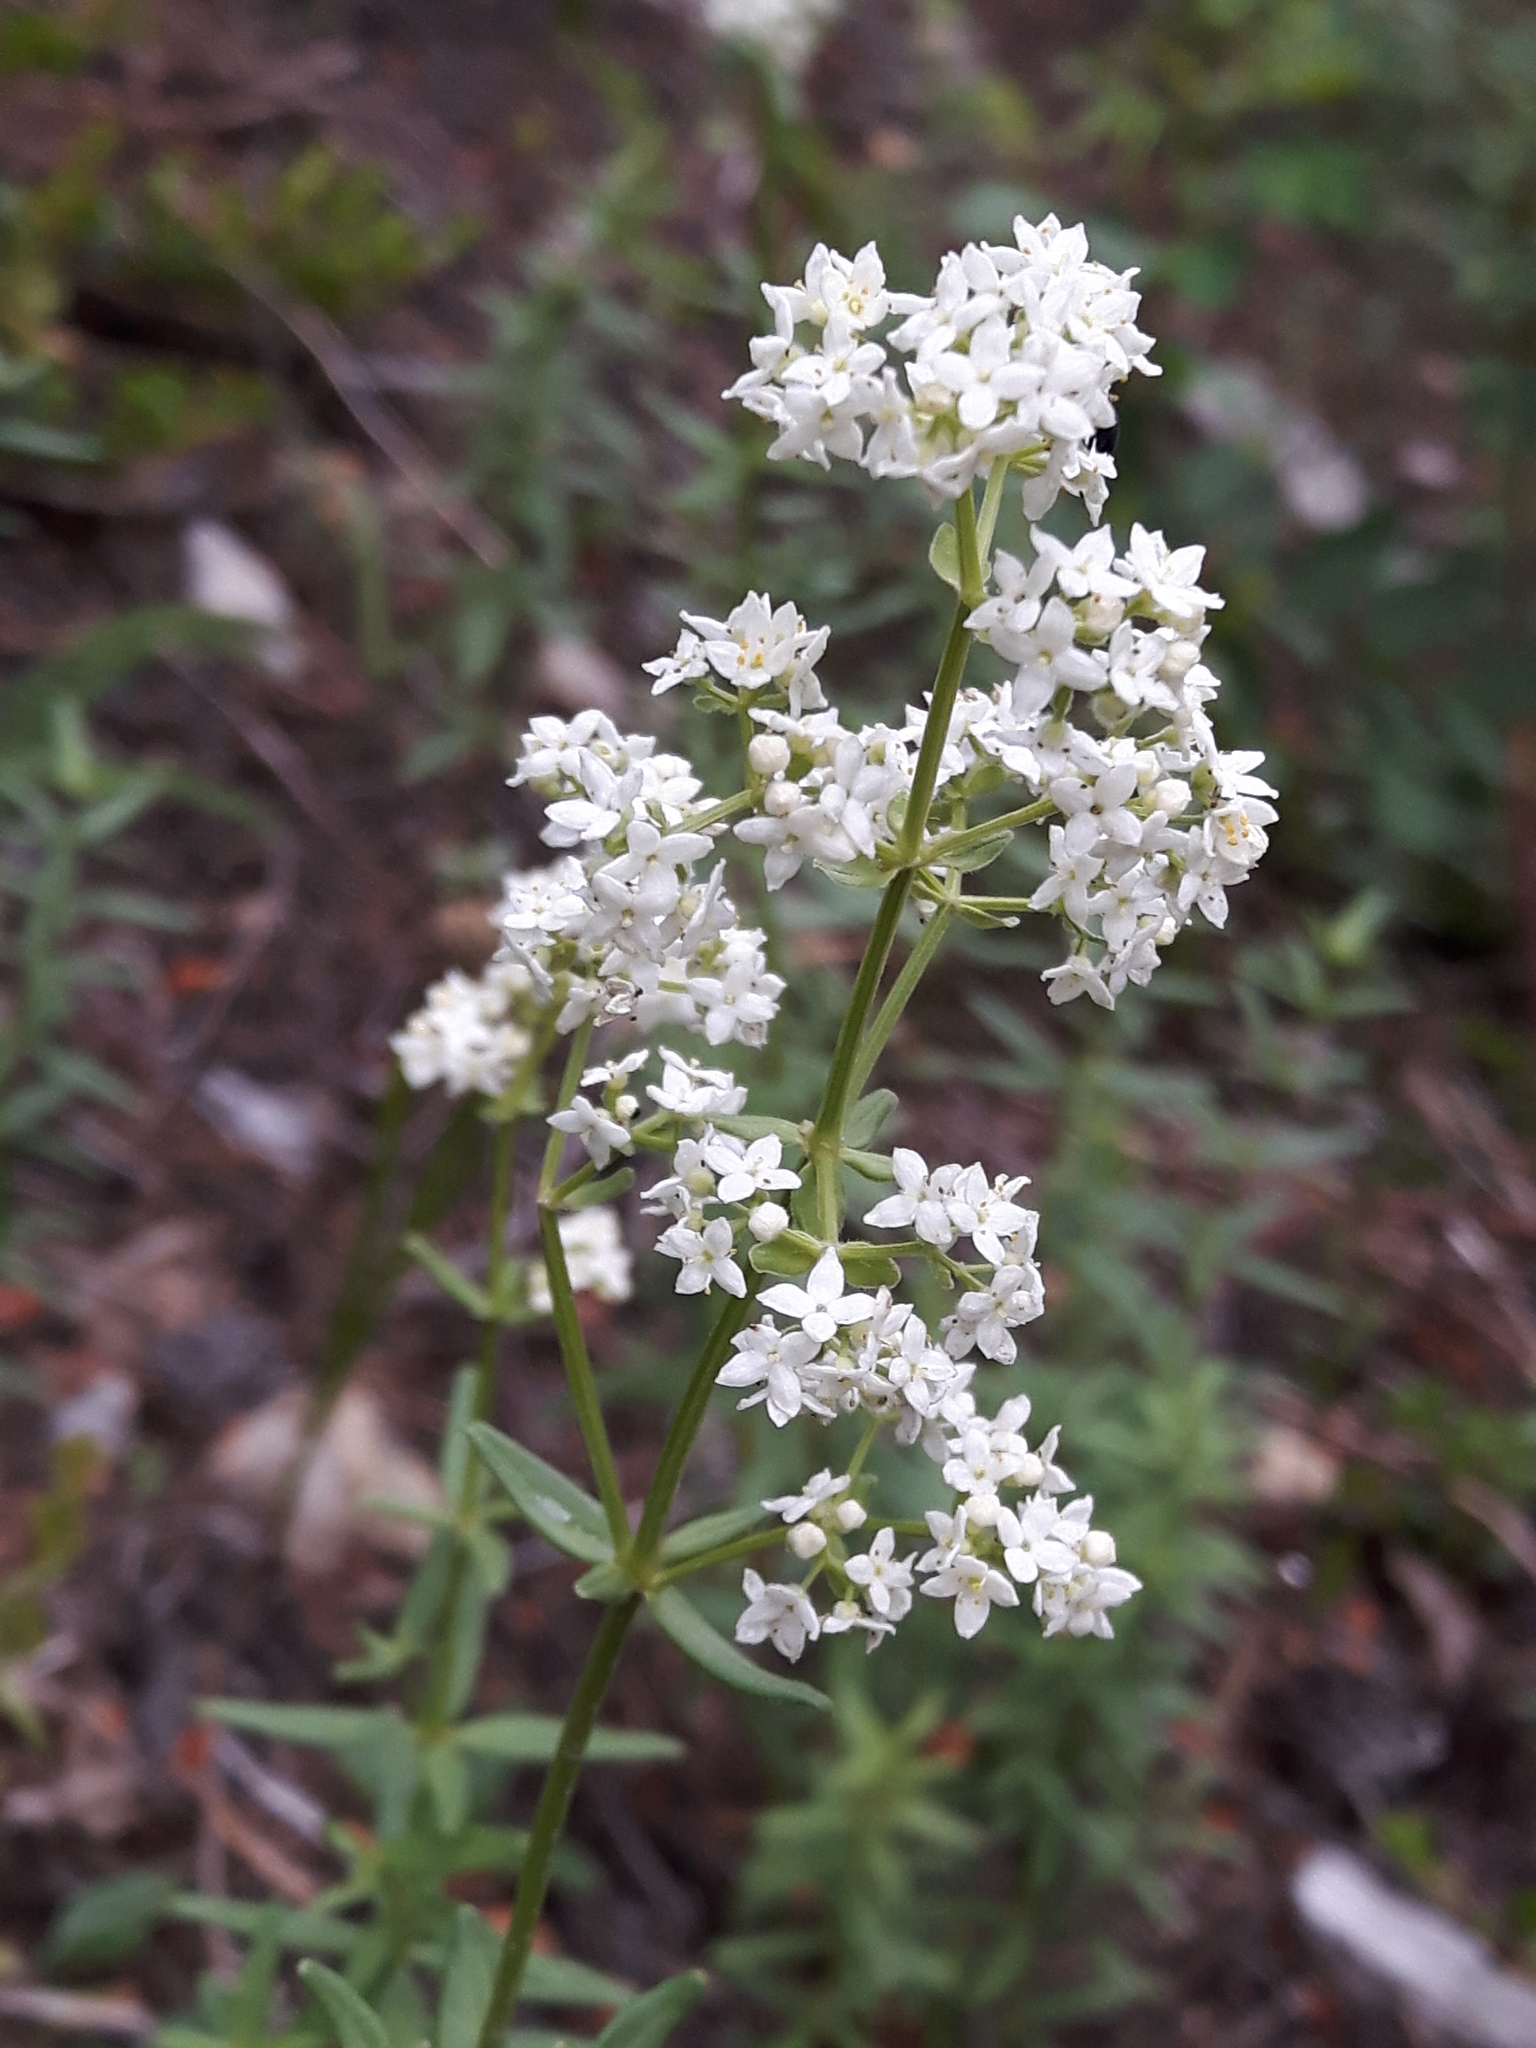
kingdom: Plantae
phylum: Tracheophyta
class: Magnoliopsida
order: Gentianales
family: Rubiaceae
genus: Galium
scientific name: Galium boreale
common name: Northern bedstraw
